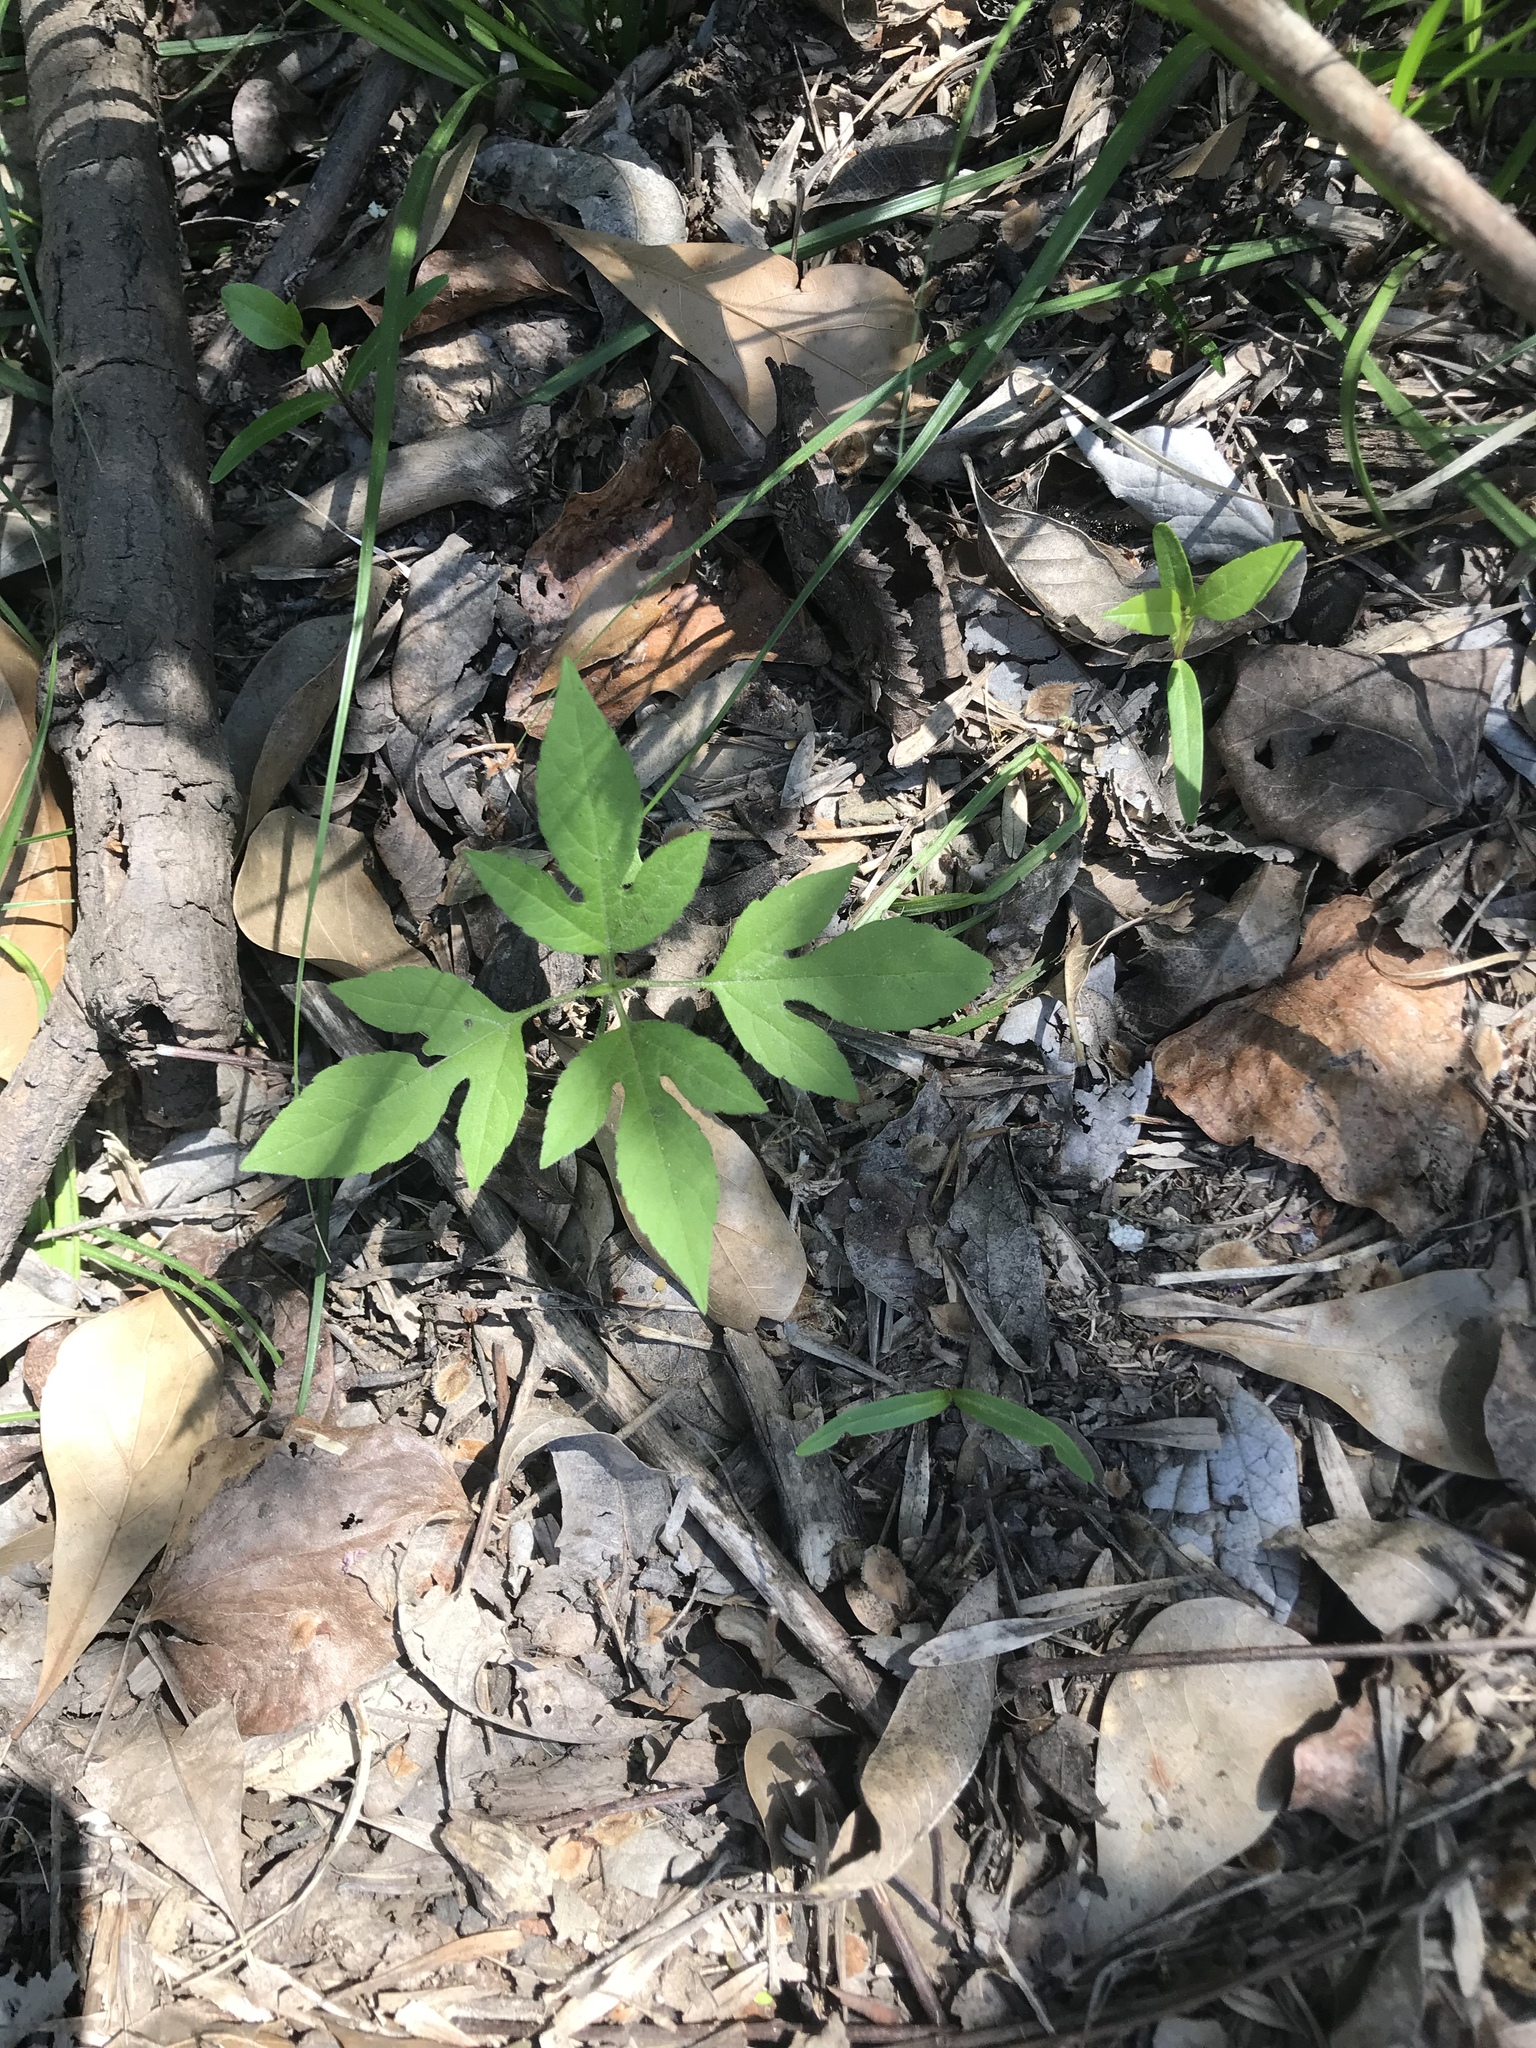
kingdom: Plantae
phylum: Tracheophyta
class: Magnoliopsida
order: Asterales
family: Asteraceae
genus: Ambrosia
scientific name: Ambrosia trifida
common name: Giant ragweed
